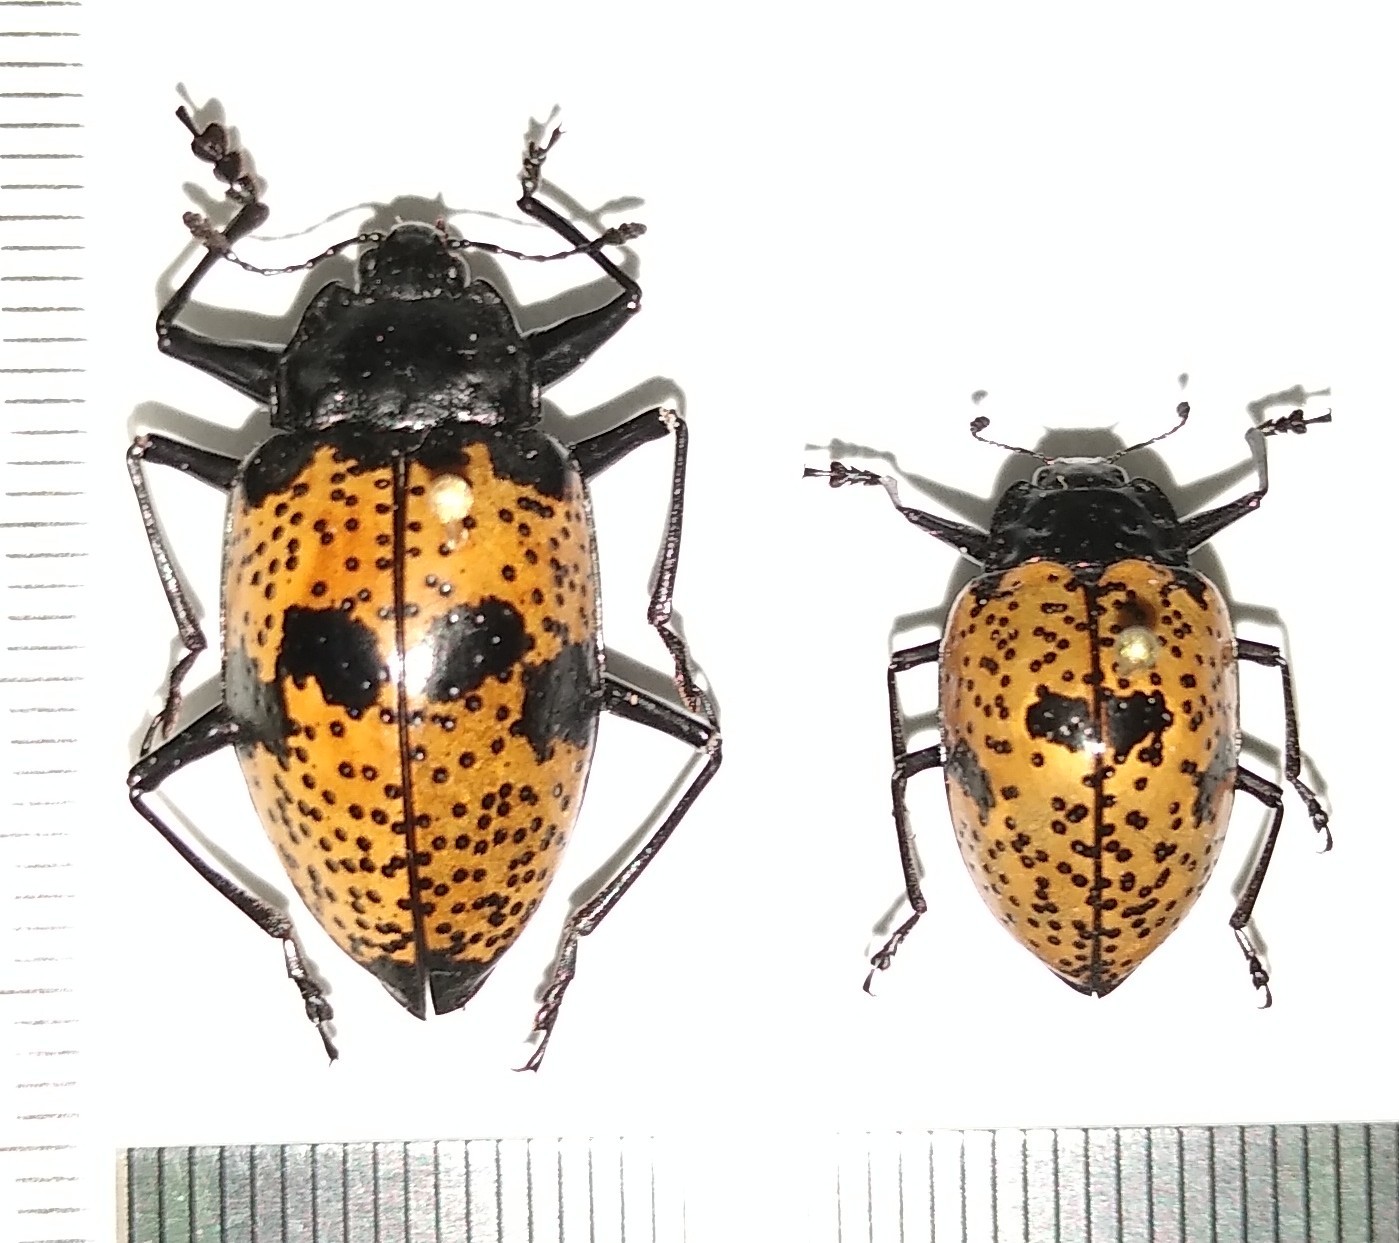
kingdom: Animalia
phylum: Arthropoda
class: Insecta
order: Coleoptera
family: Erotylidae
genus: Gibbifer
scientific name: Gibbifer
